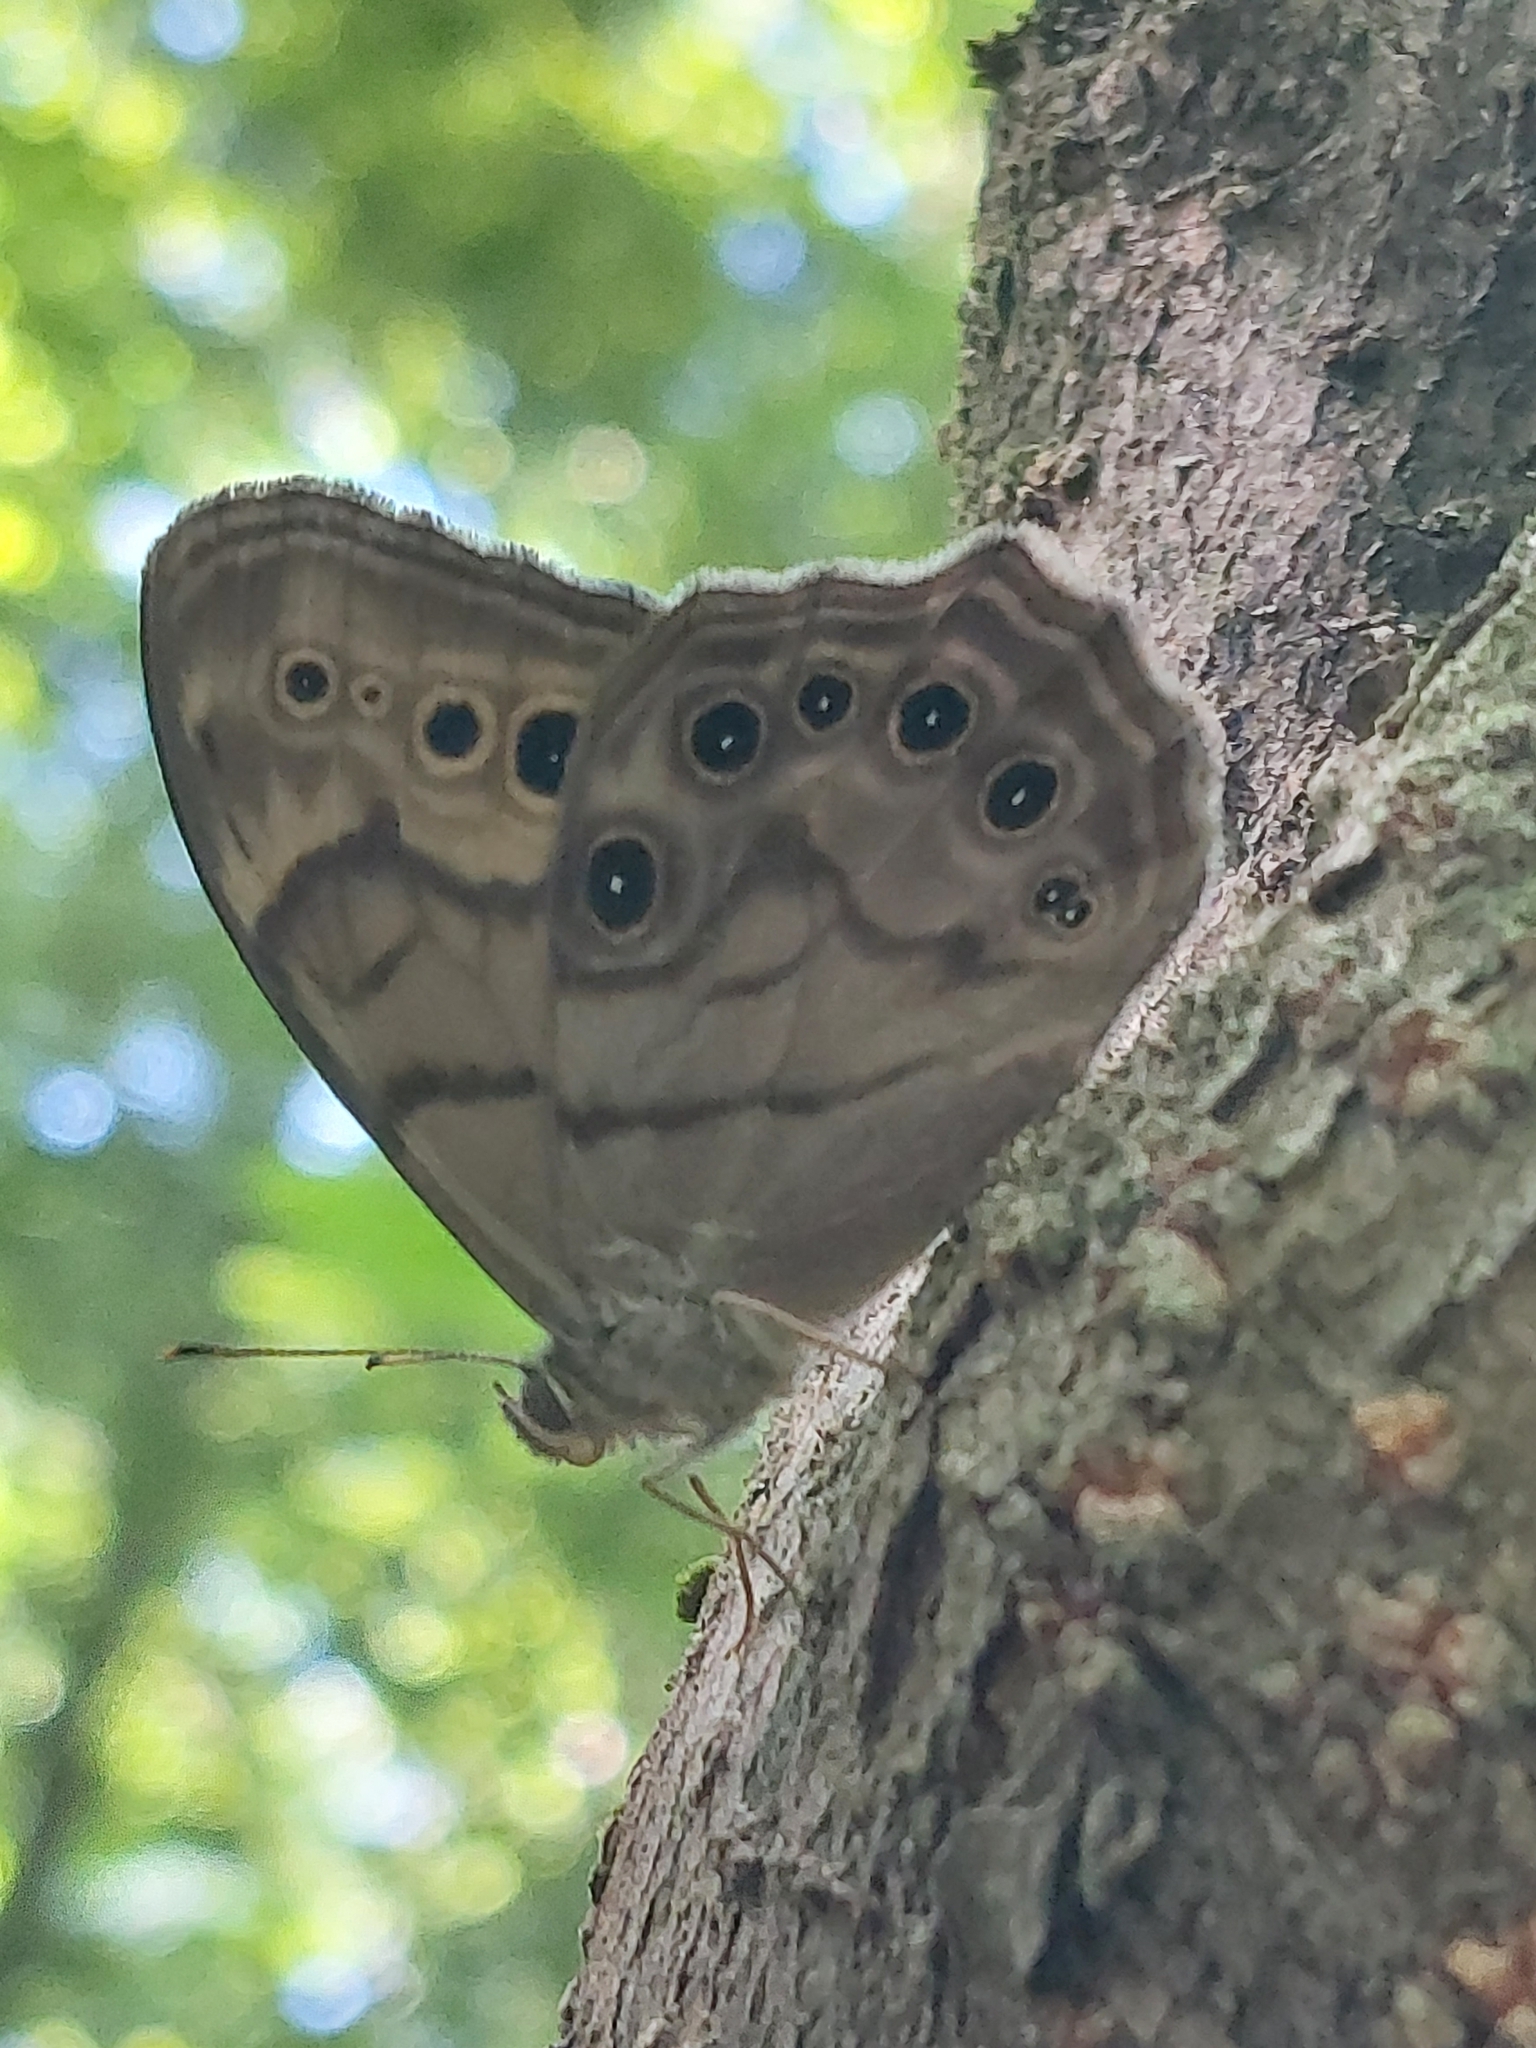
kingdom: Animalia
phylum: Arthropoda
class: Insecta
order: Lepidoptera
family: Nymphalidae
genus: Lethe
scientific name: Lethe anthedon
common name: Northern pearly-eye
